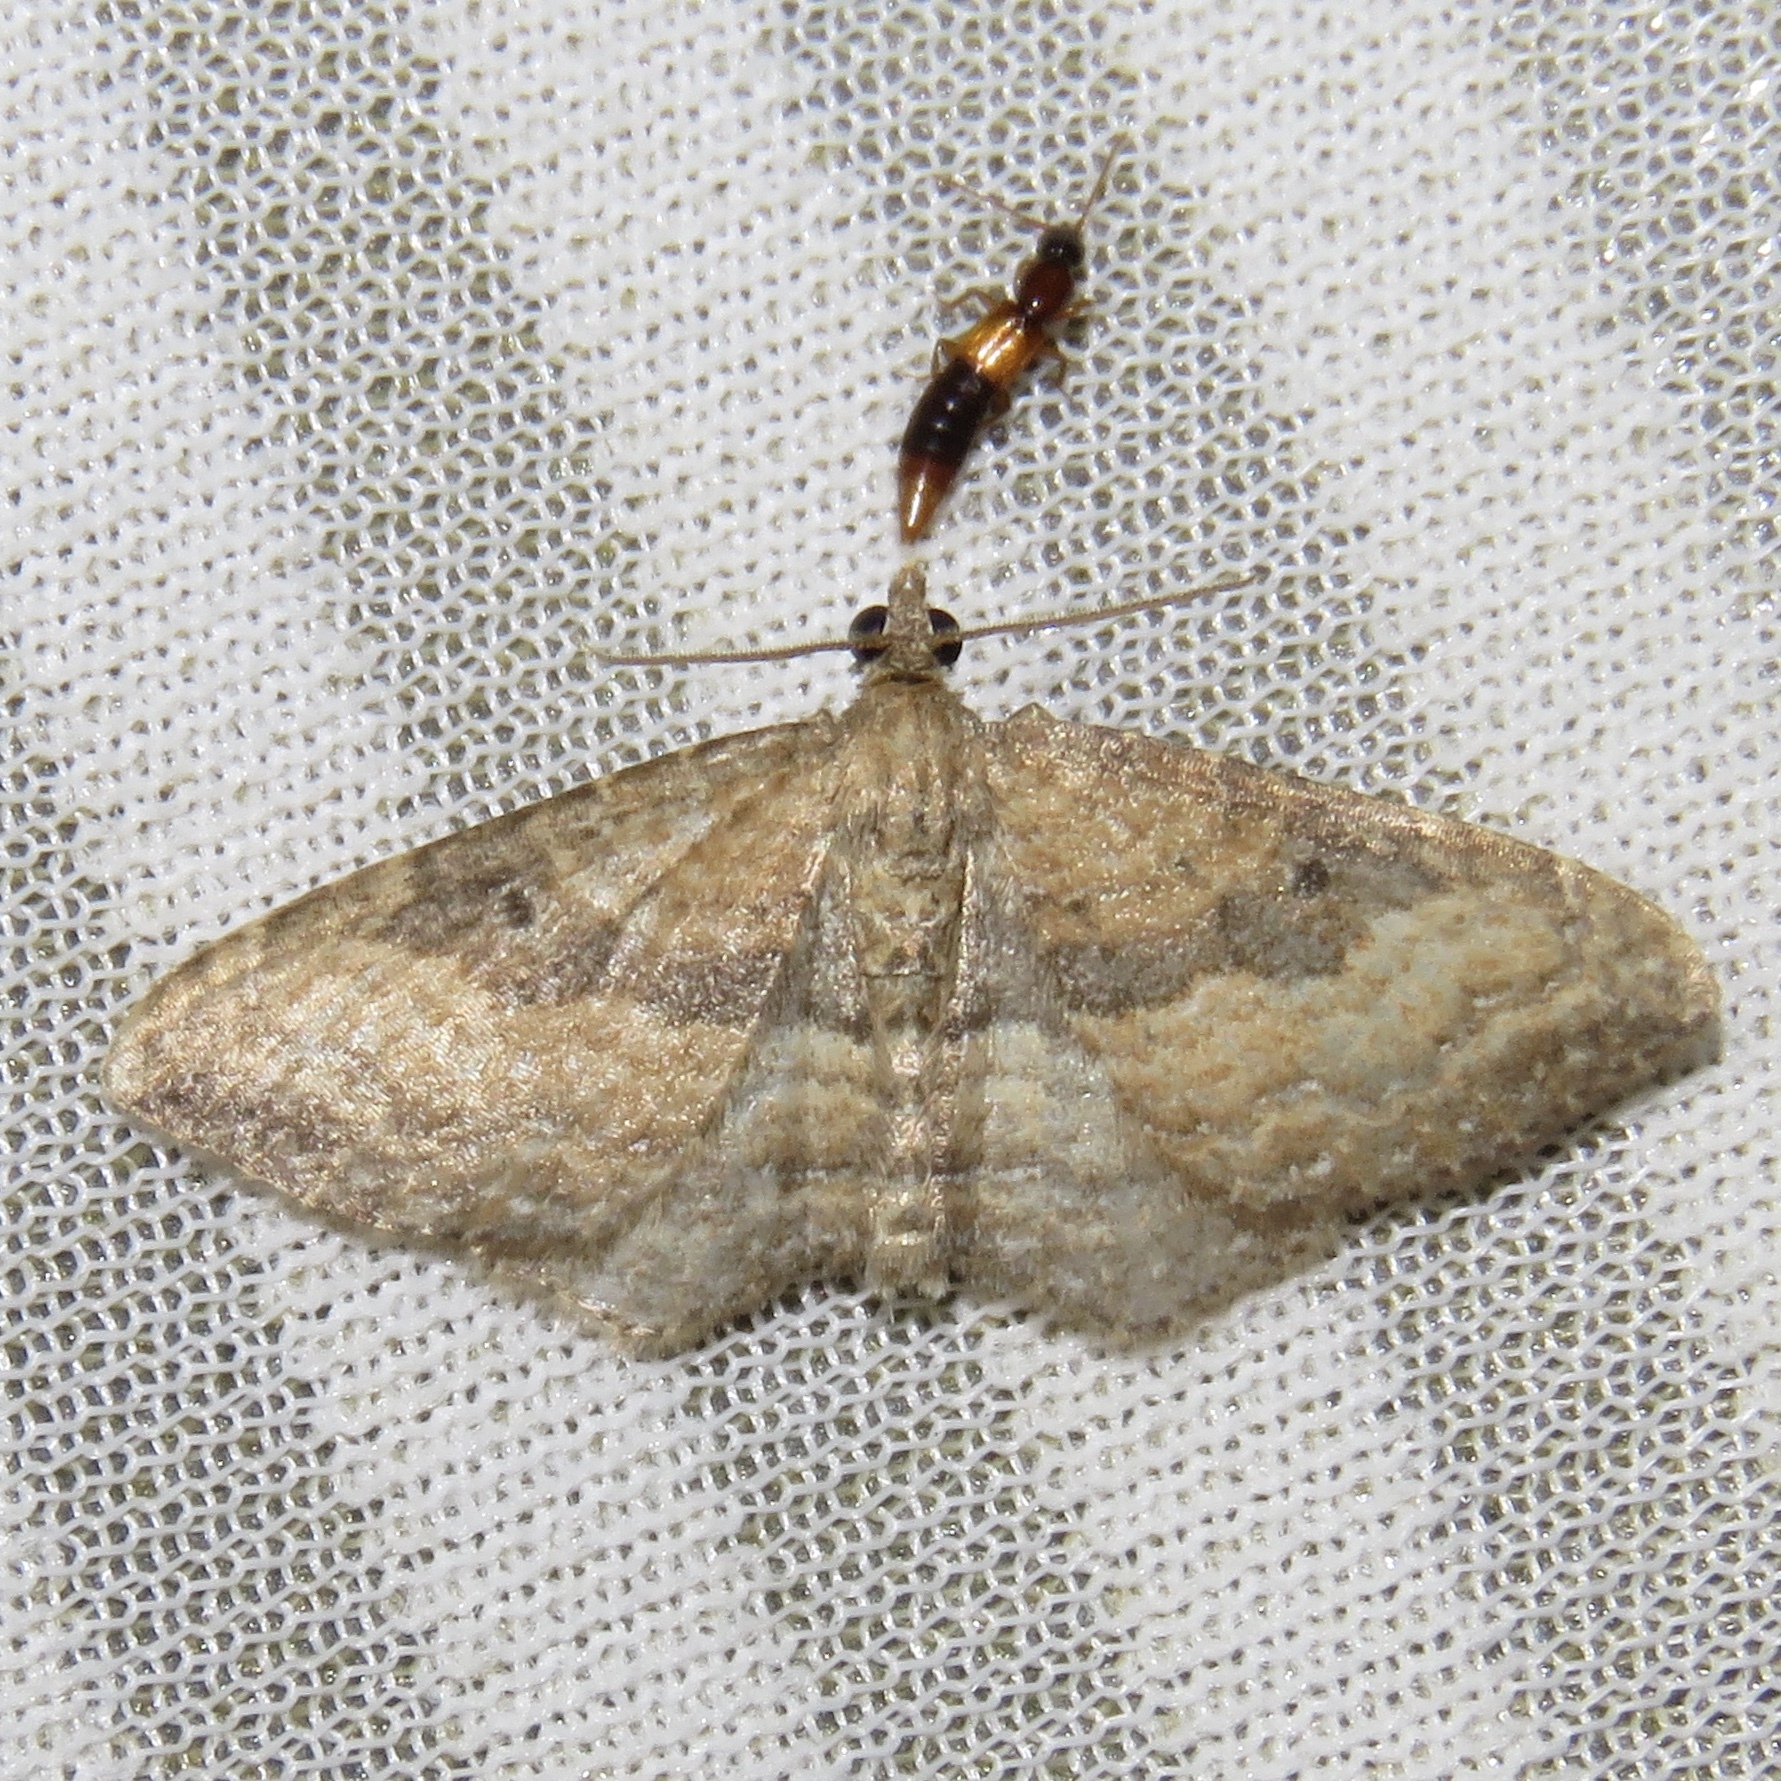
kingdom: Animalia
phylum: Arthropoda
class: Insecta
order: Lepidoptera
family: Geometridae
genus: Orthonama
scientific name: Orthonama obstipata
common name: The gem
